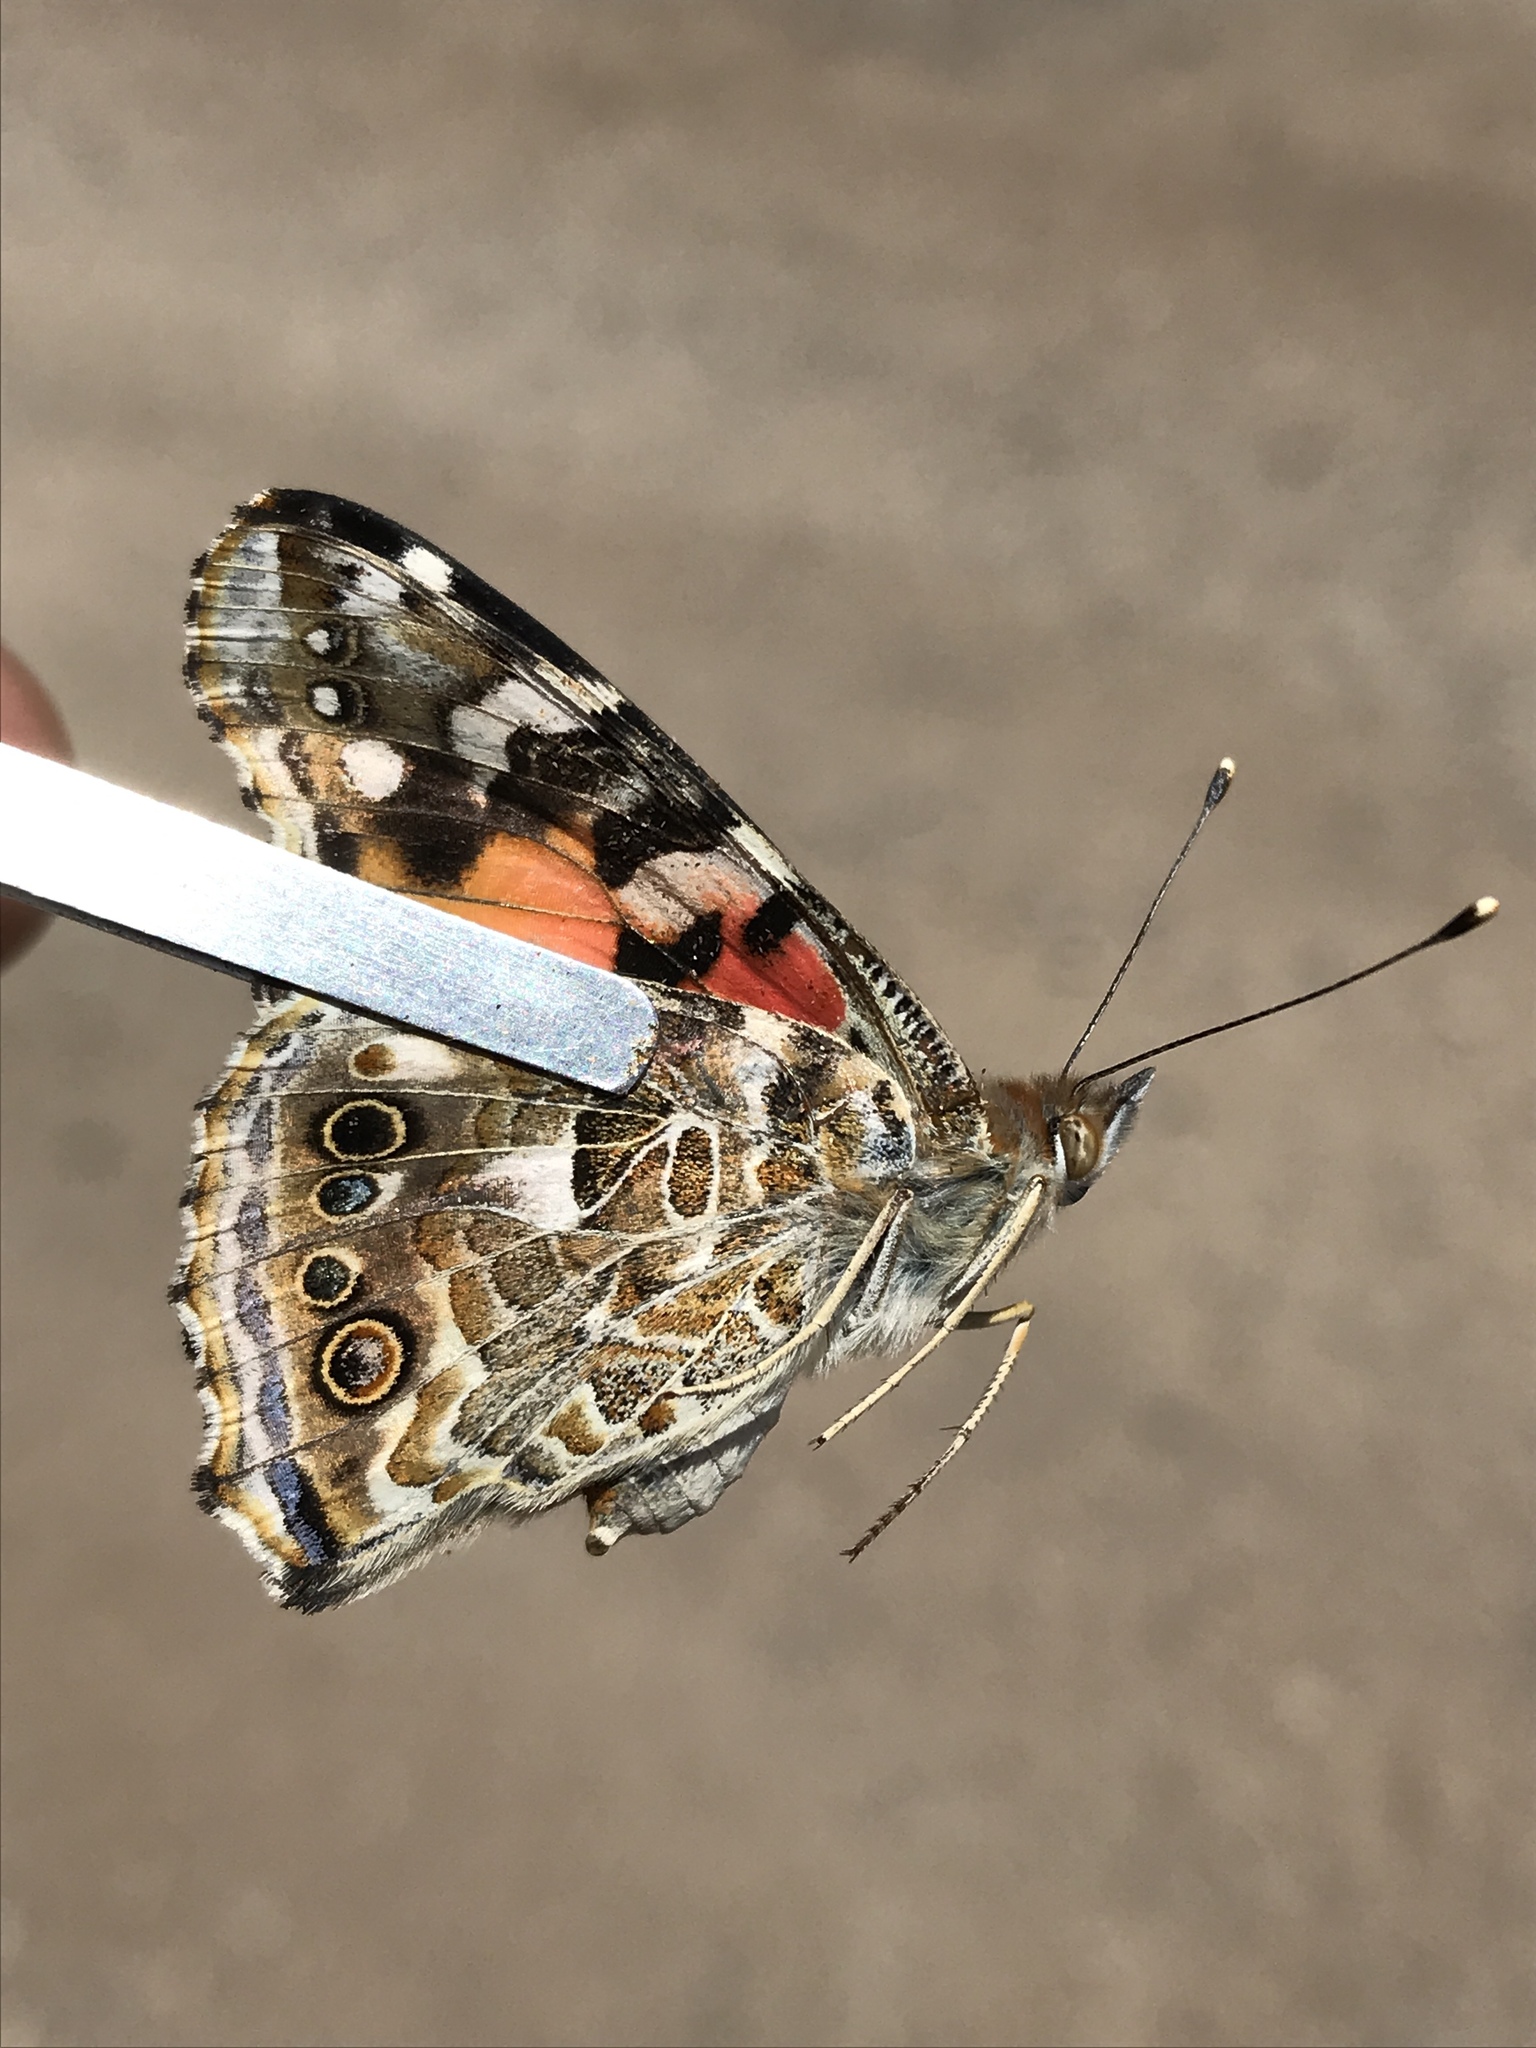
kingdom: Animalia
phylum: Arthropoda
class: Insecta
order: Lepidoptera
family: Nymphalidae
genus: Vanessa
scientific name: Vanessa cardui
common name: Painted lady
